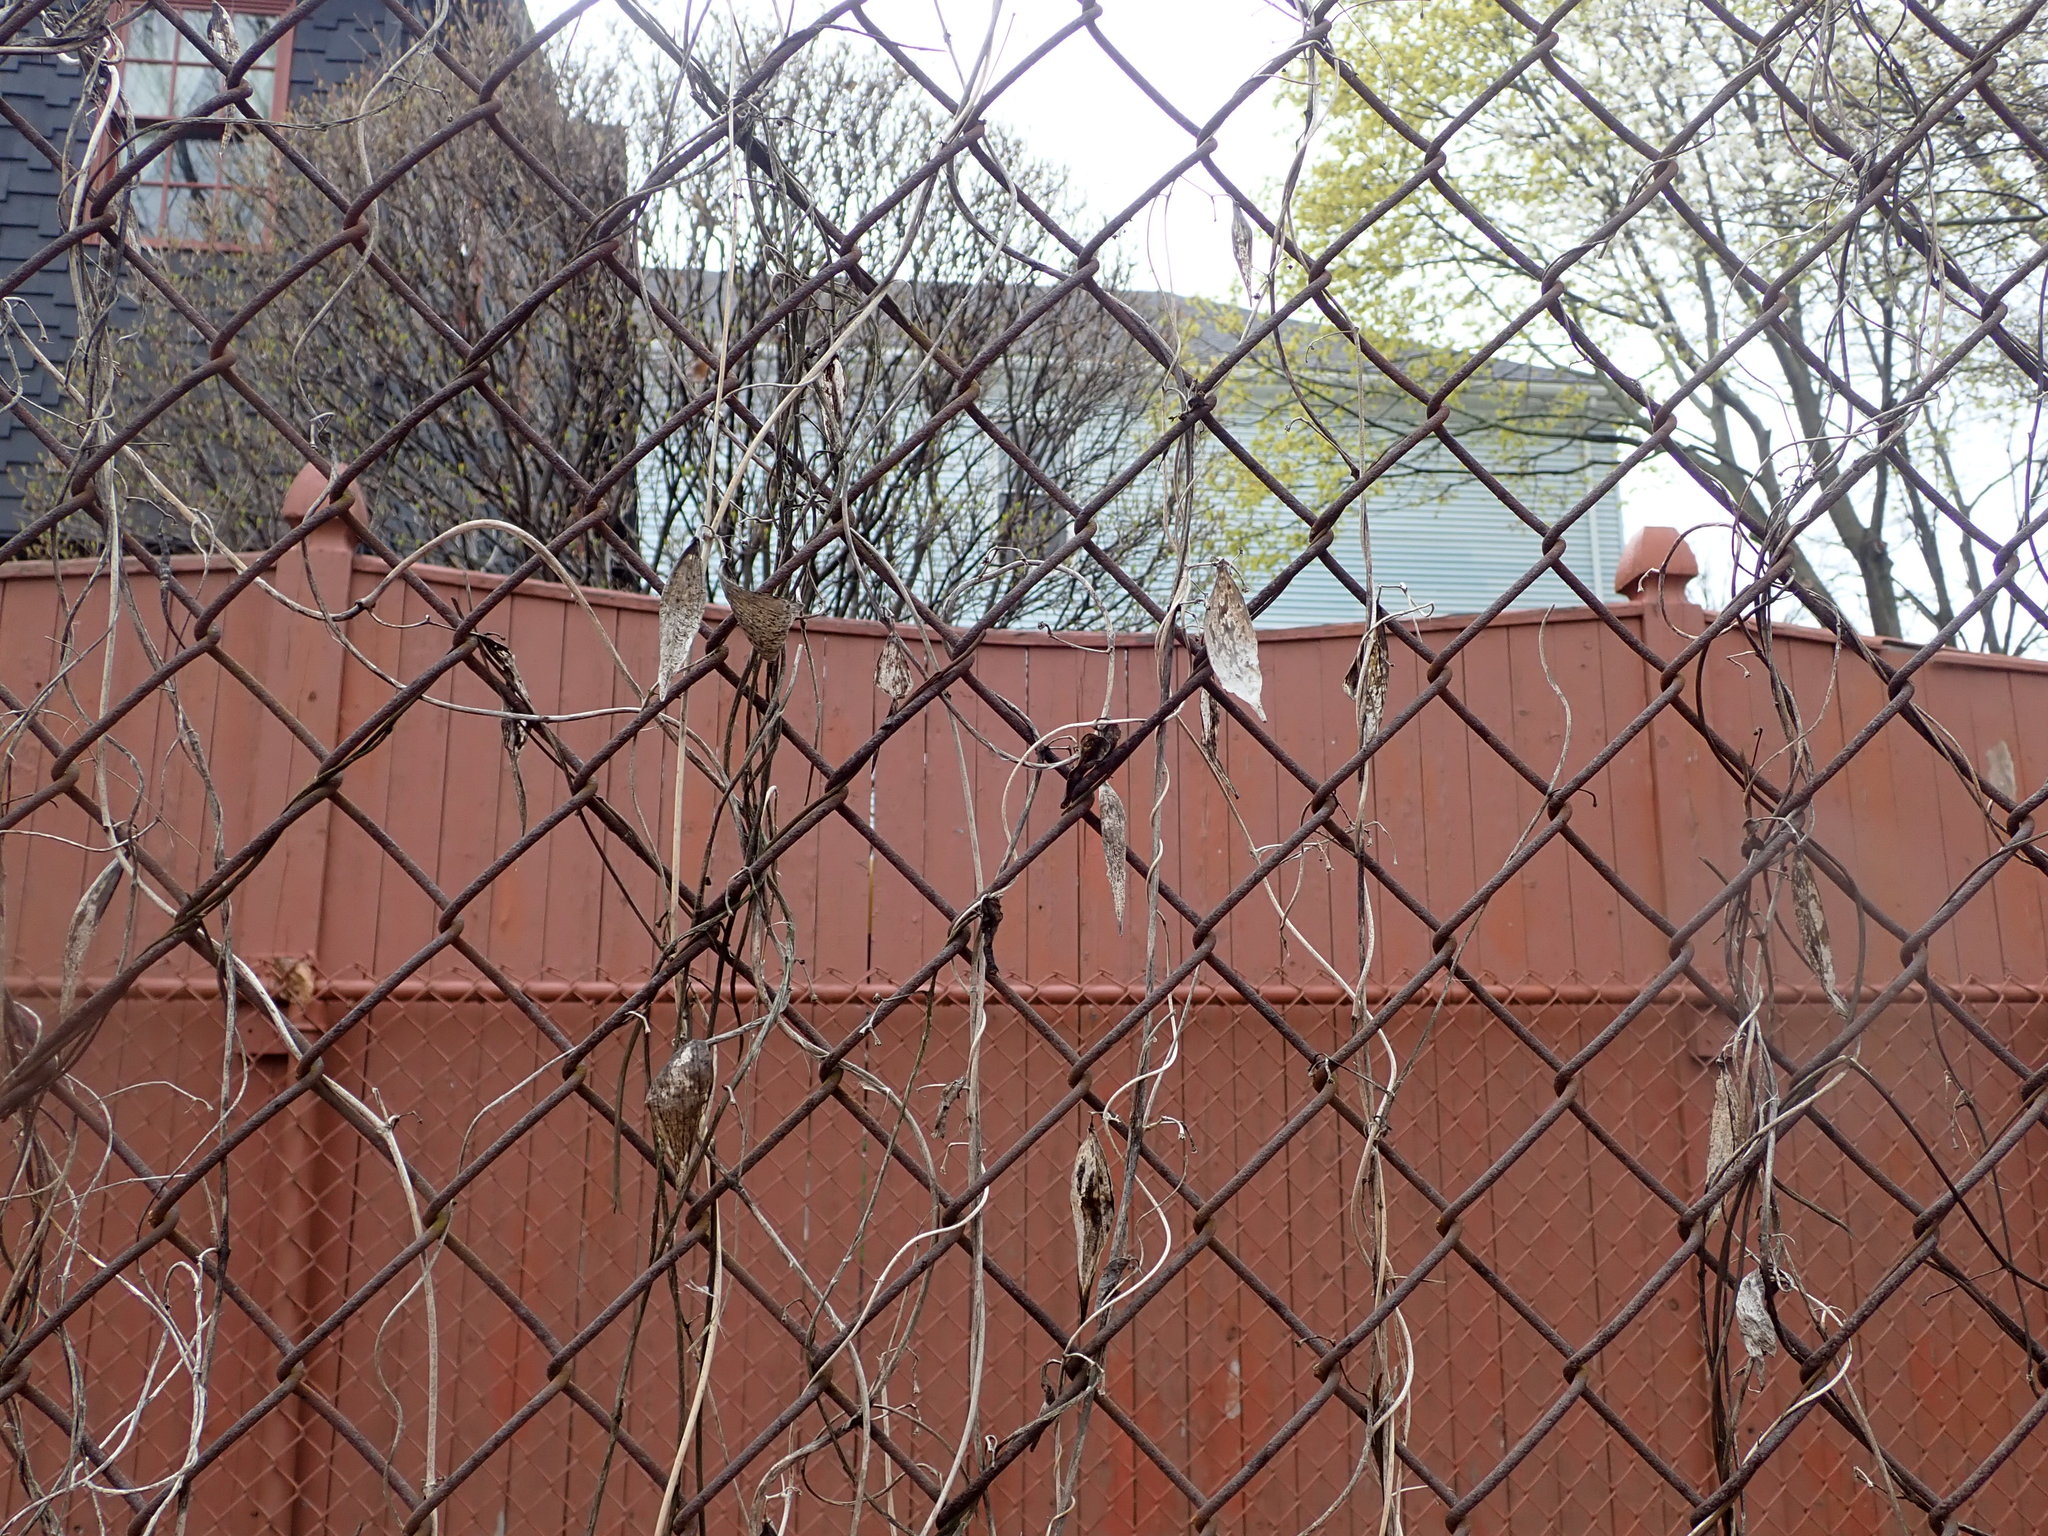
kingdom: Plantae
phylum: Tracheophyta
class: Magnoliopsida
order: Gentianales
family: Apocynaceae
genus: Vincetoxicum
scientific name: Vincetoxicum nigrum
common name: Black swallow-wort
